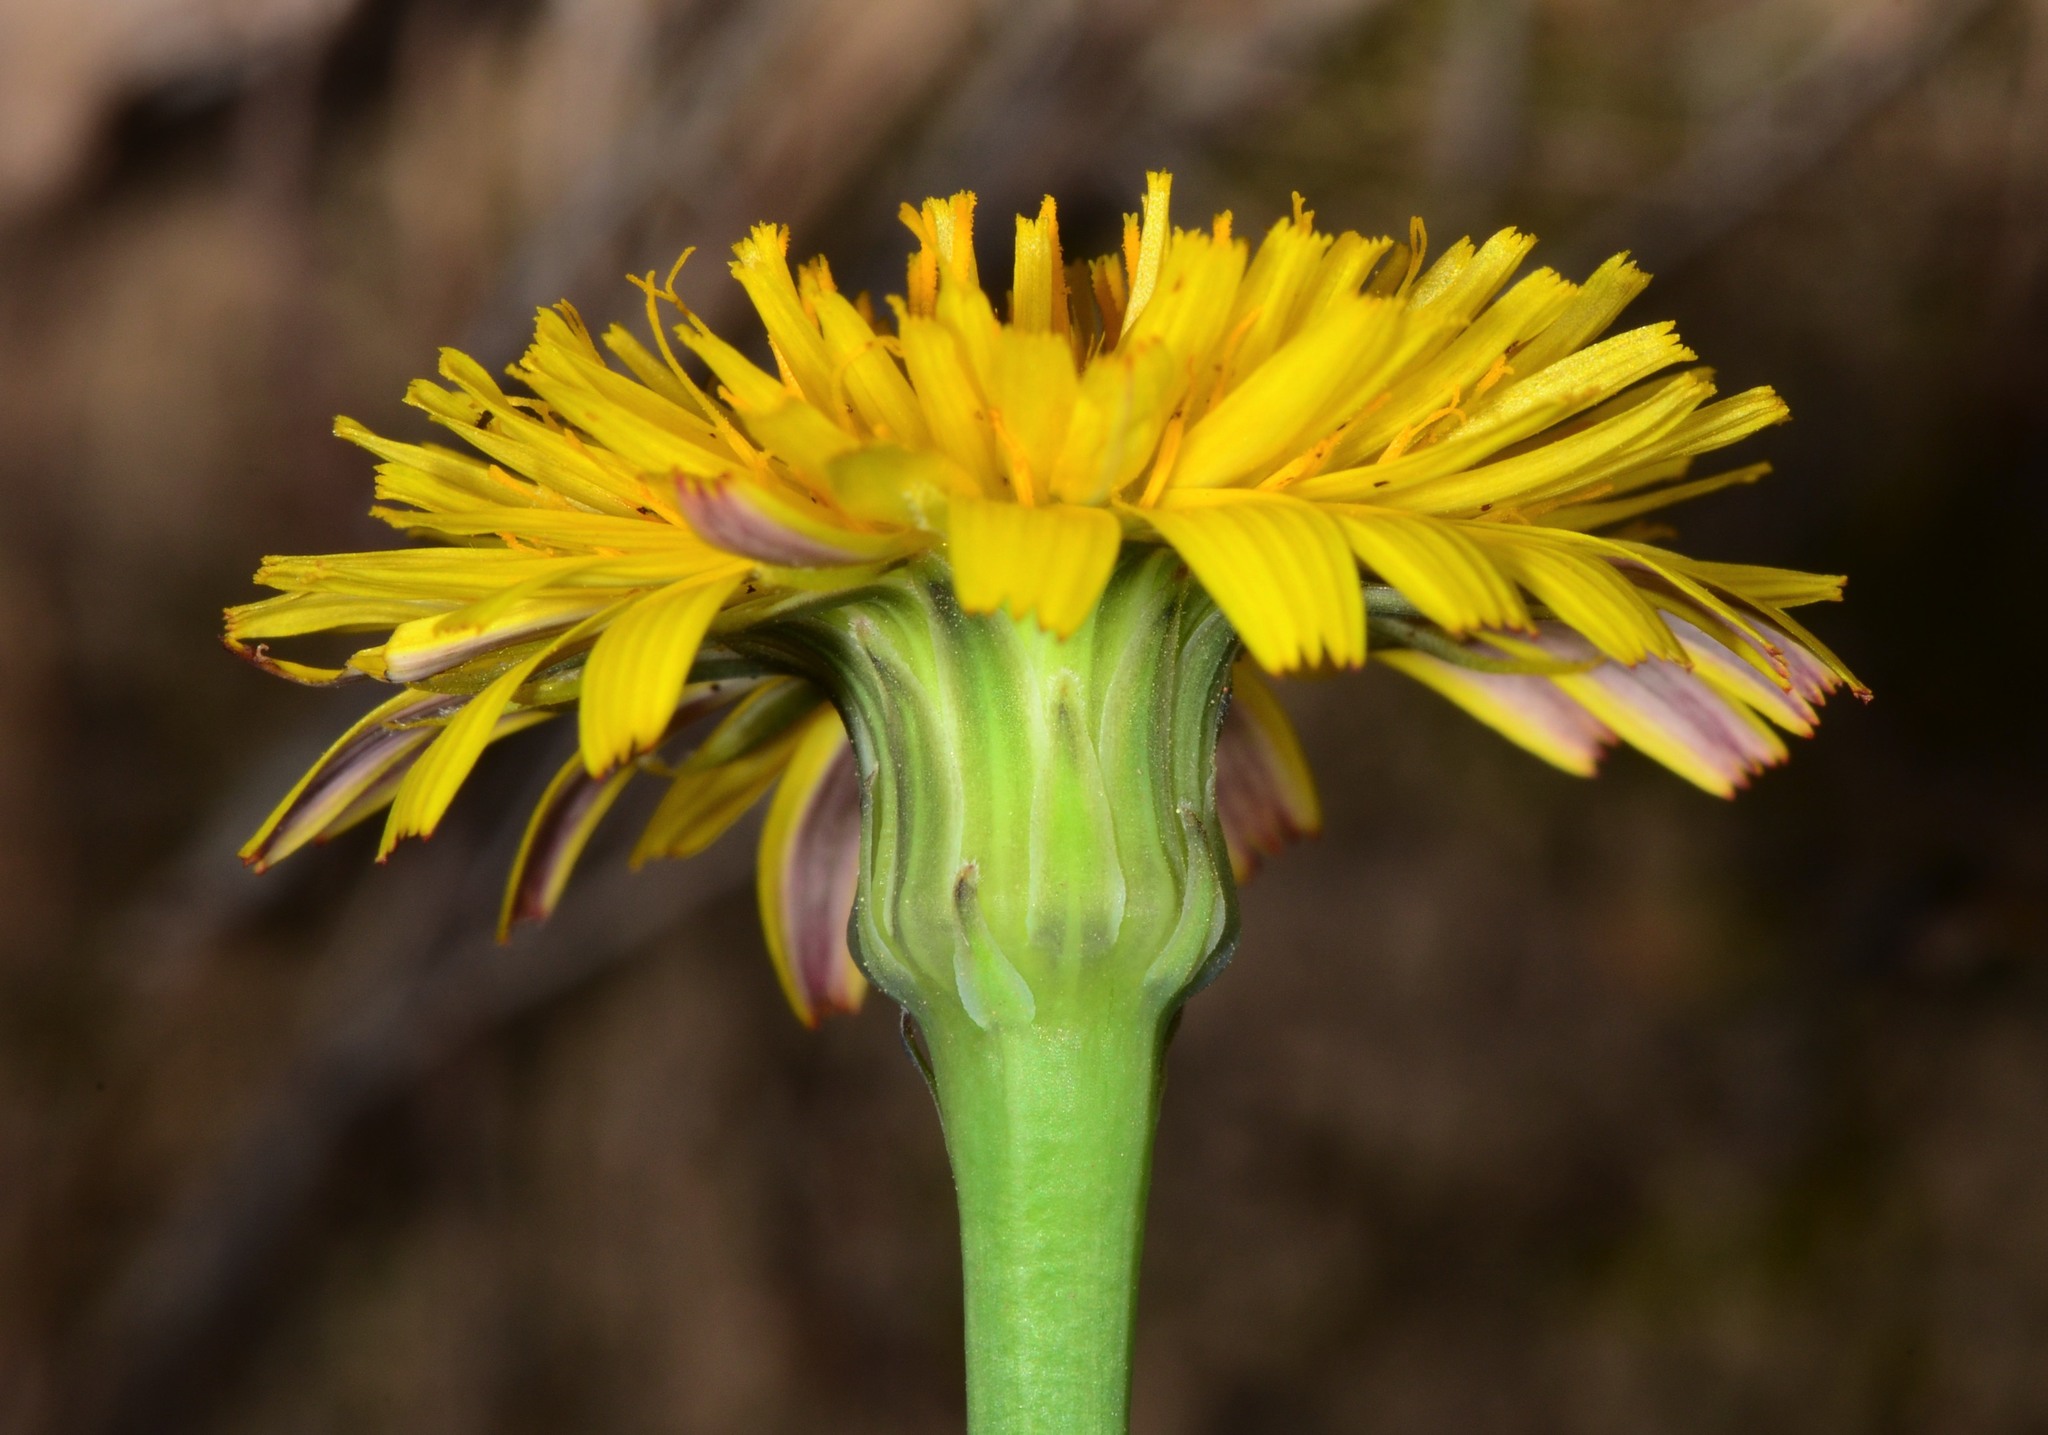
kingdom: Plantae
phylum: Tracheophyta
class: Magnoliopsida
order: Asterales
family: Asteraceae
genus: Hypochaeris
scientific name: Hypochaeris radicata
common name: Flatweed
